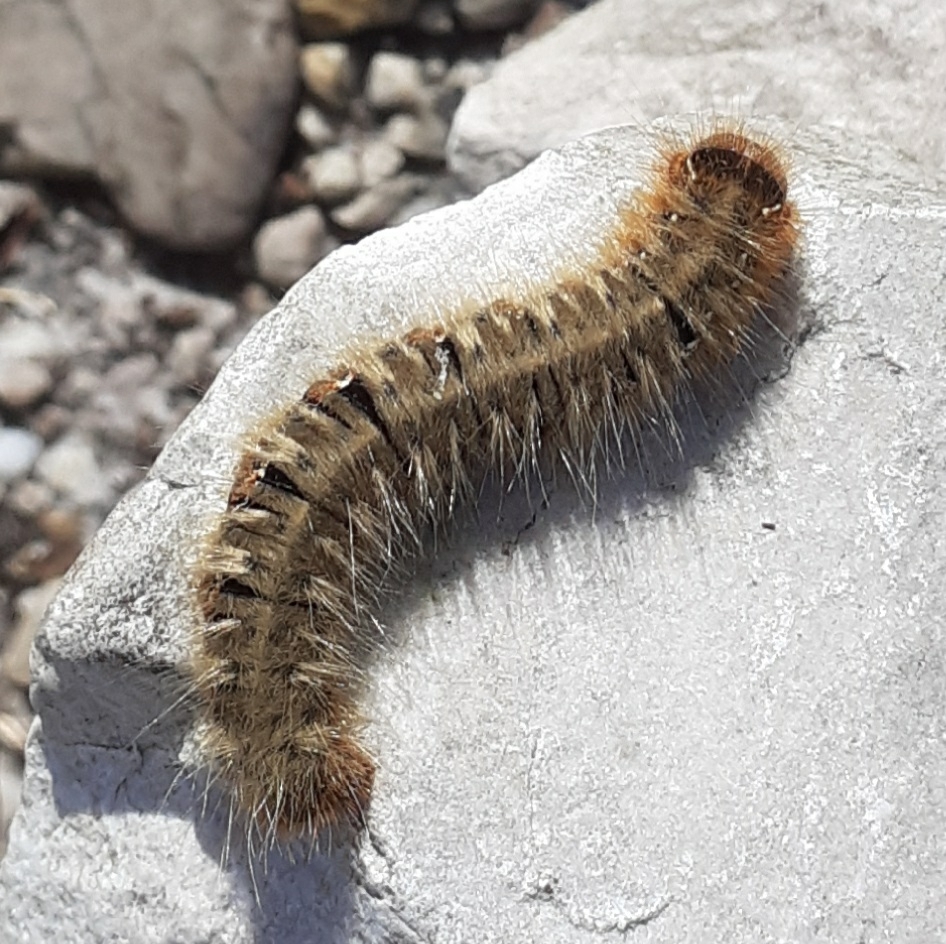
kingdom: Animalia
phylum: Arthropoda
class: Insecta
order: Lepidoptera
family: Lasiocampidae
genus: Lasiocampa
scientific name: Lasiocampa quercus
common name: Oak eggar
